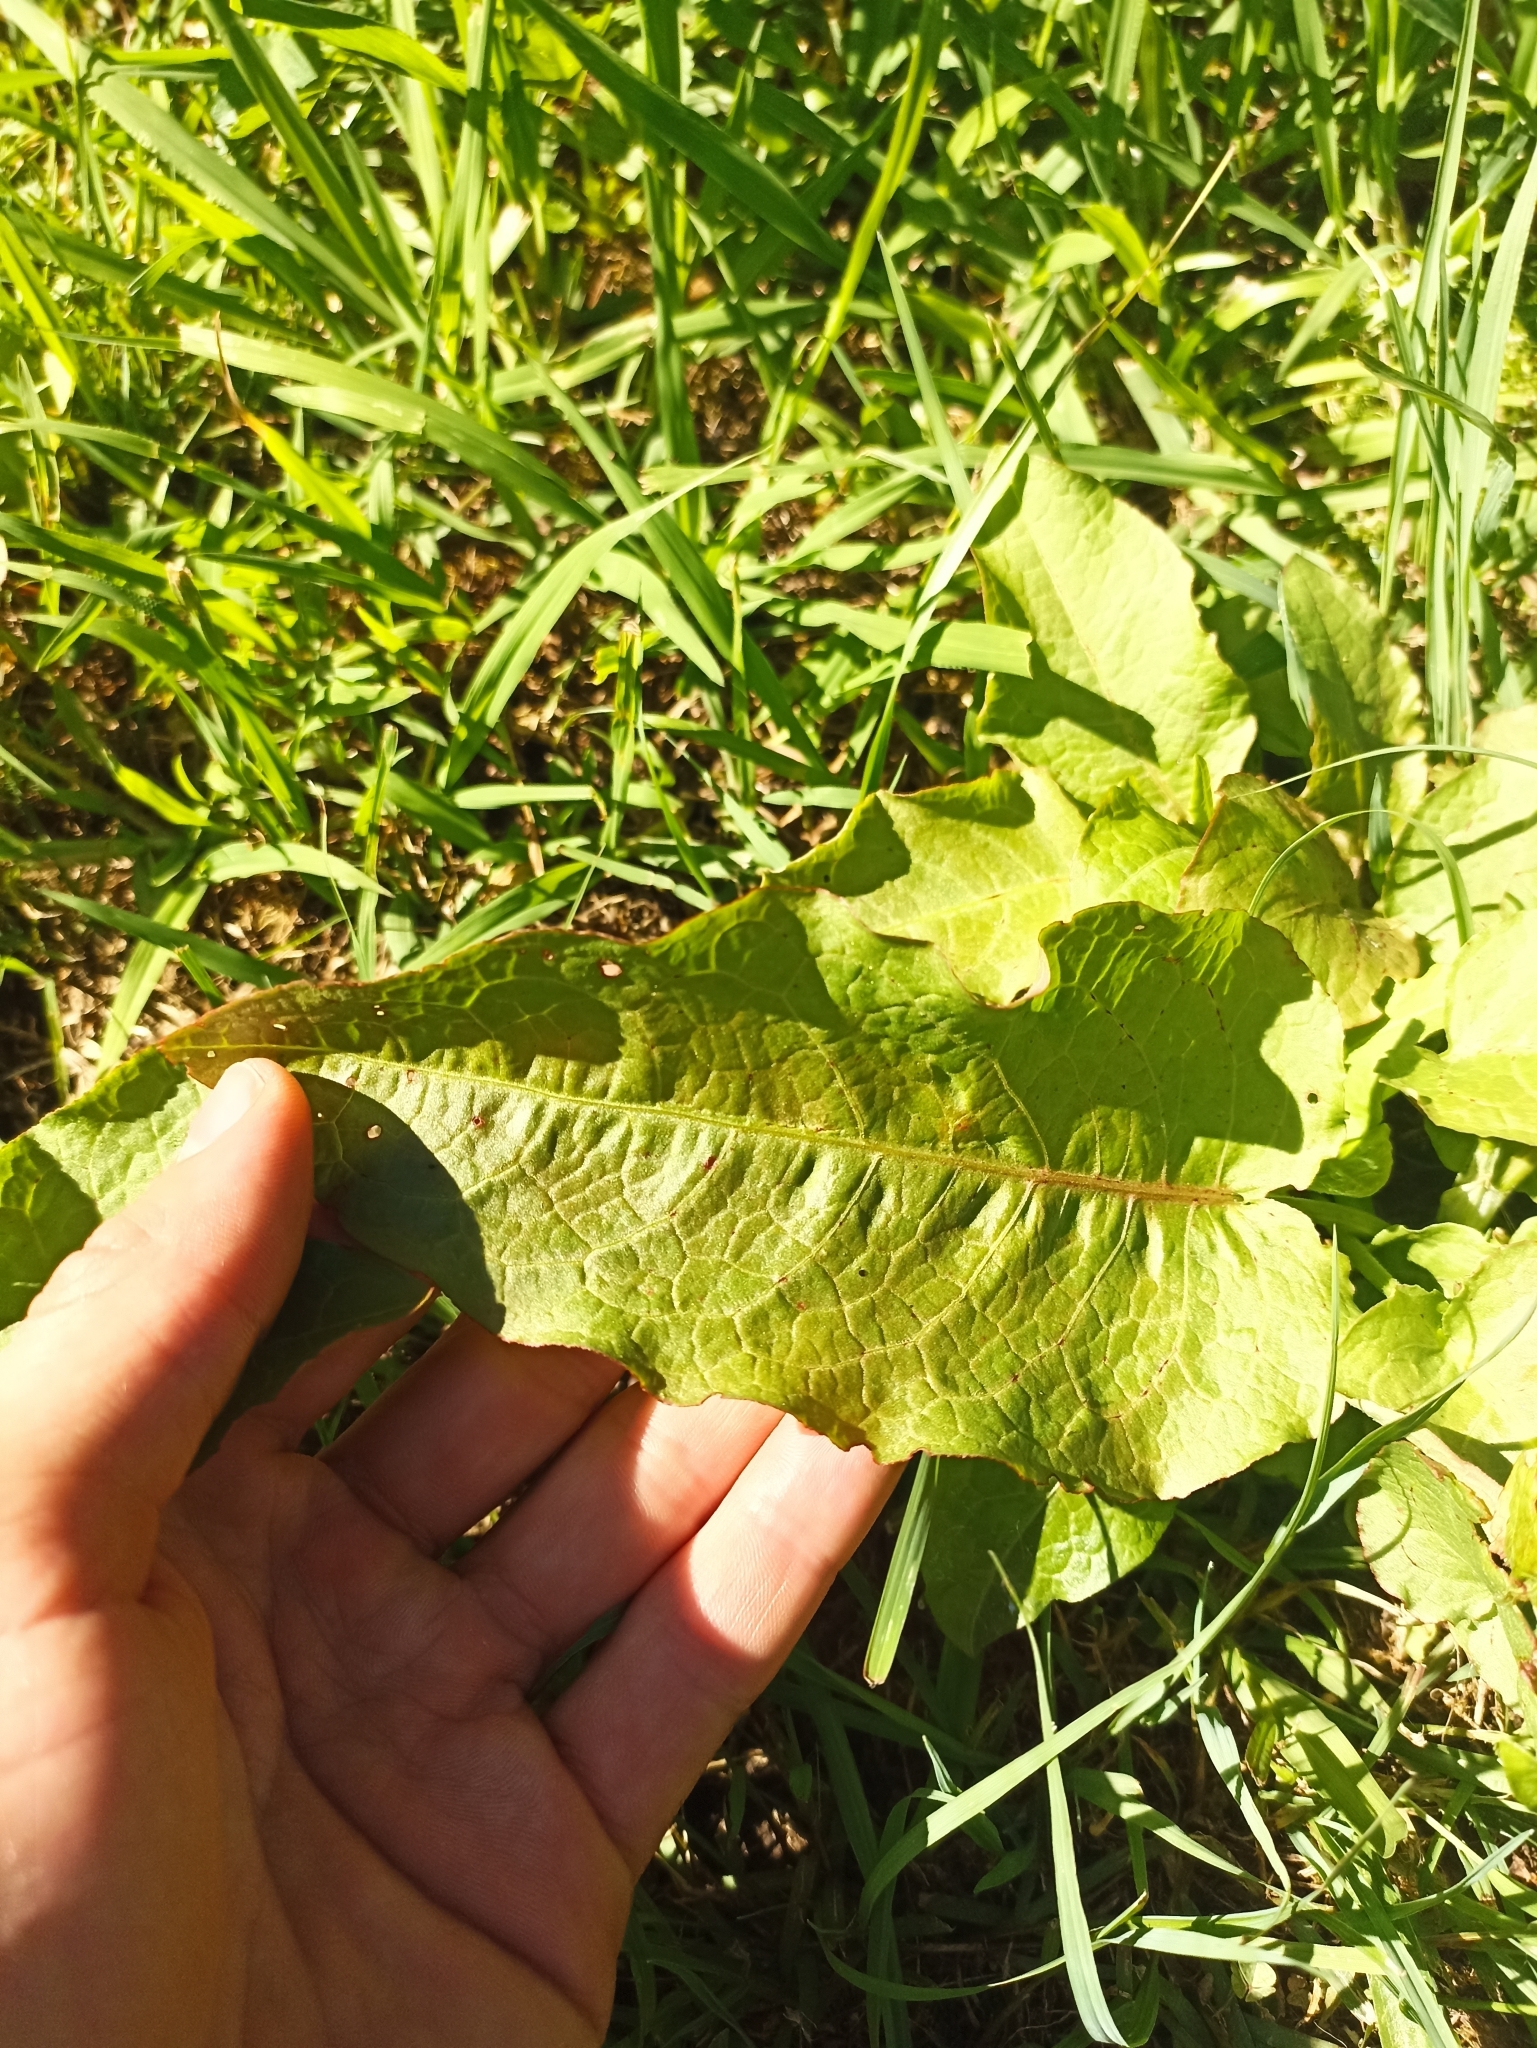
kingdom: Plantae
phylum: Tracheophyta
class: Magnoliopsida
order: Caryophyllales
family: Polygonaceae
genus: Rumex
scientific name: Rumex obtusifolius
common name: Bitter dock
